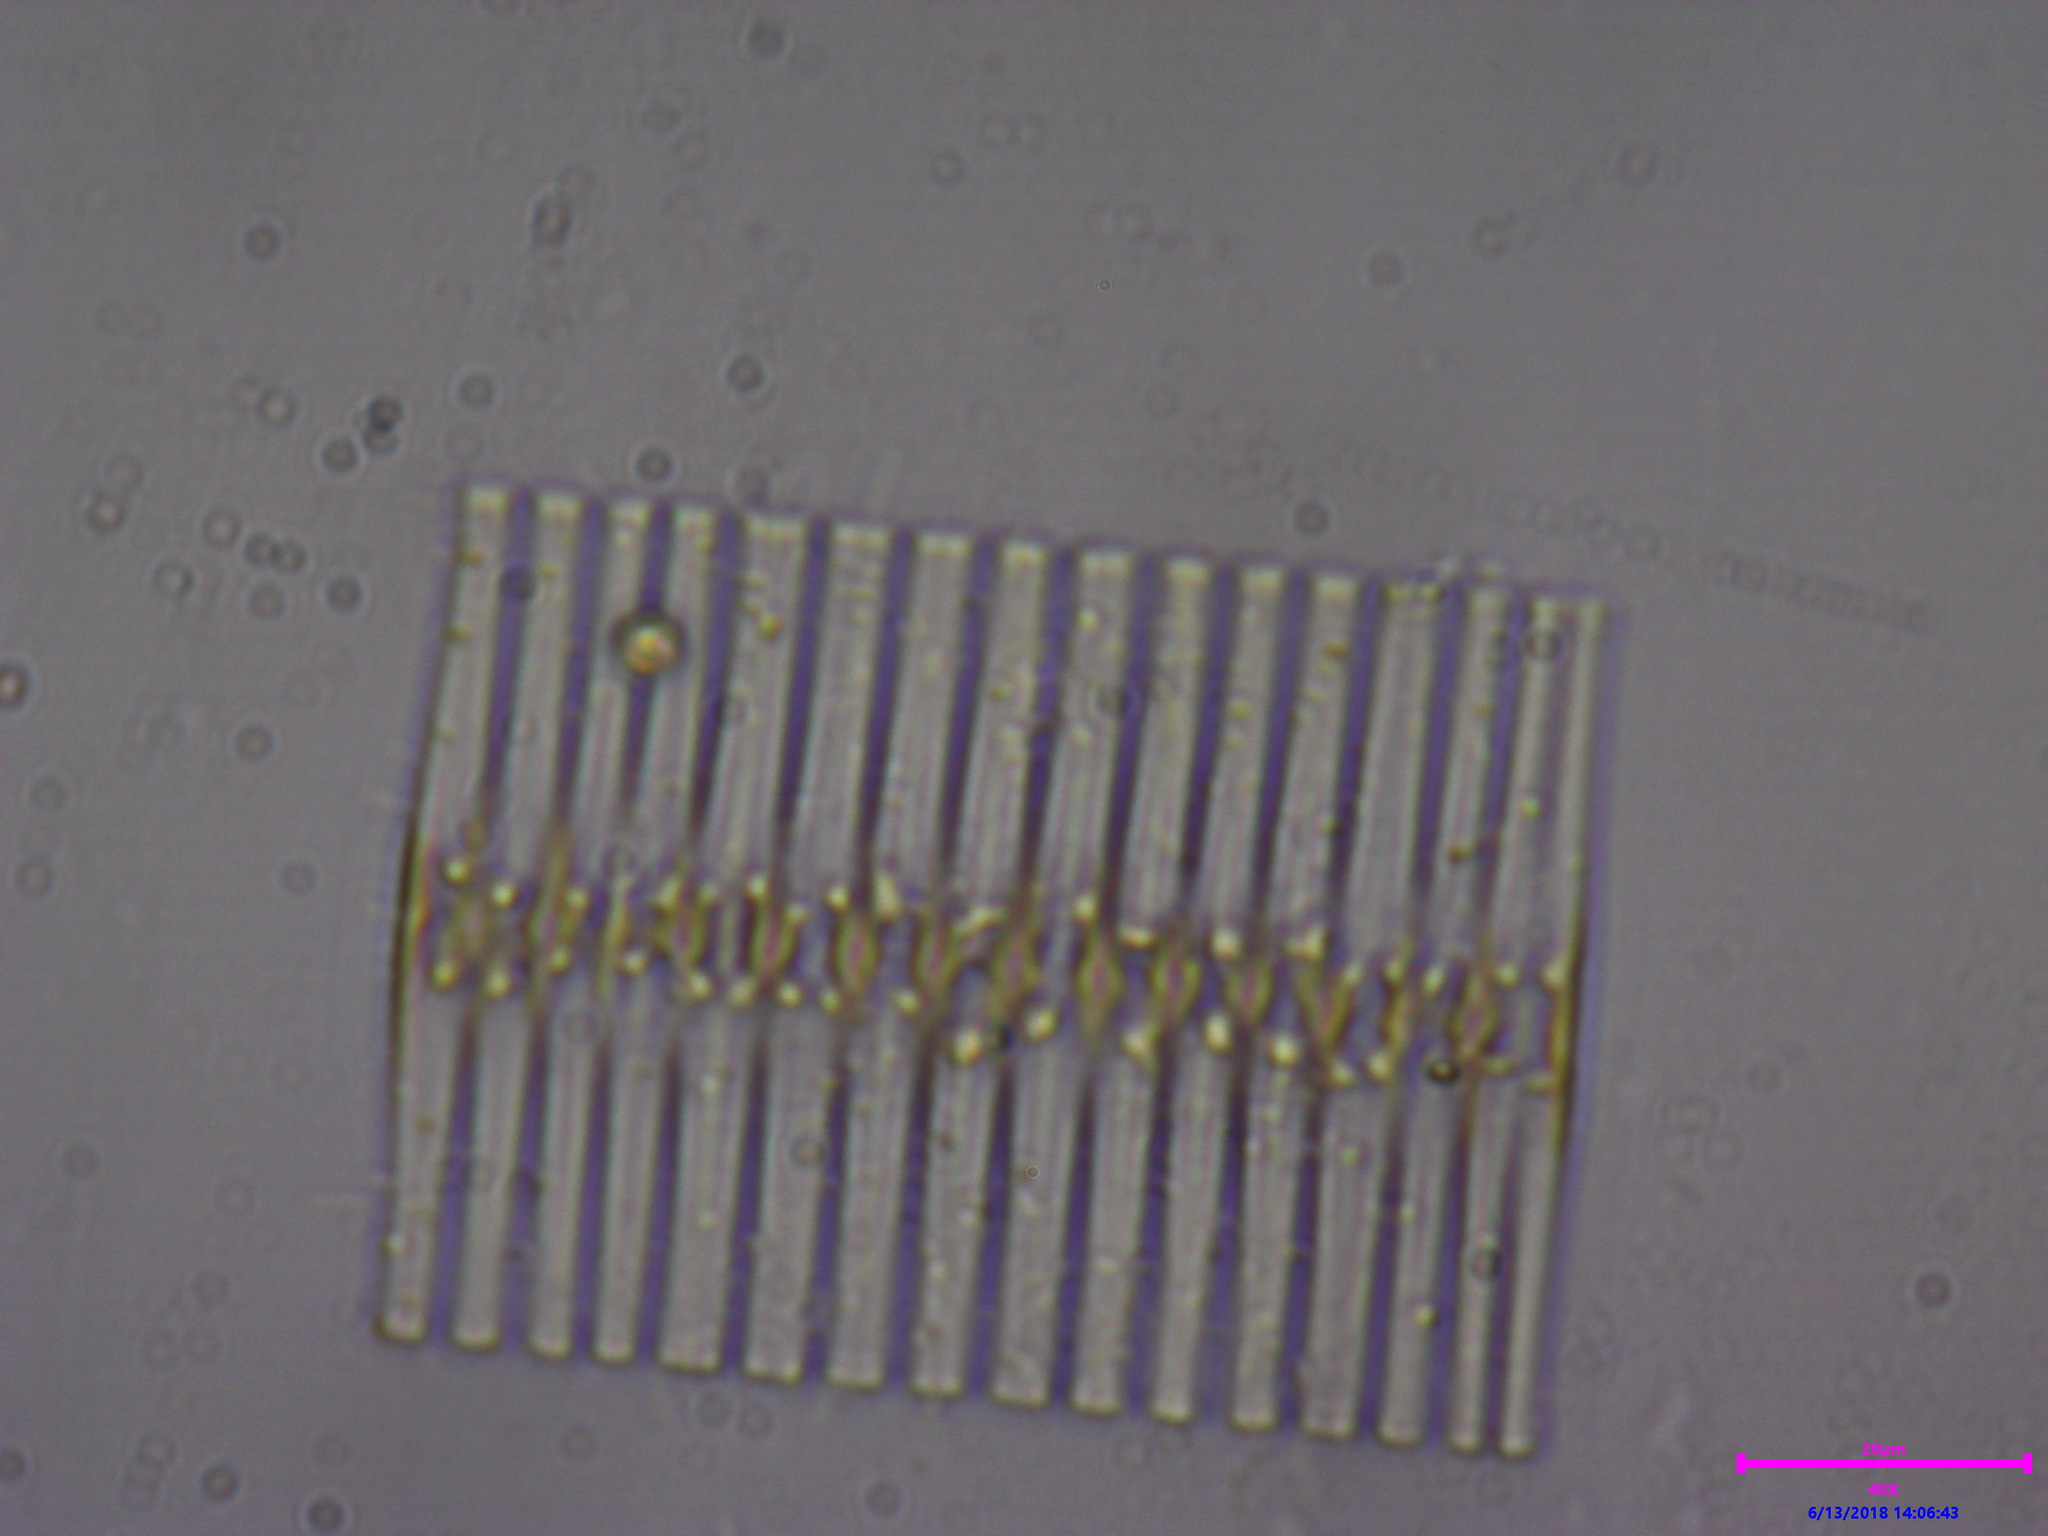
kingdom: Chromista
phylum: Ochrophyta
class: Bacillariophyceae
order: Fragilariales
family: Fragilariaceae
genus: Fragilaria
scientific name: Fragilaria
